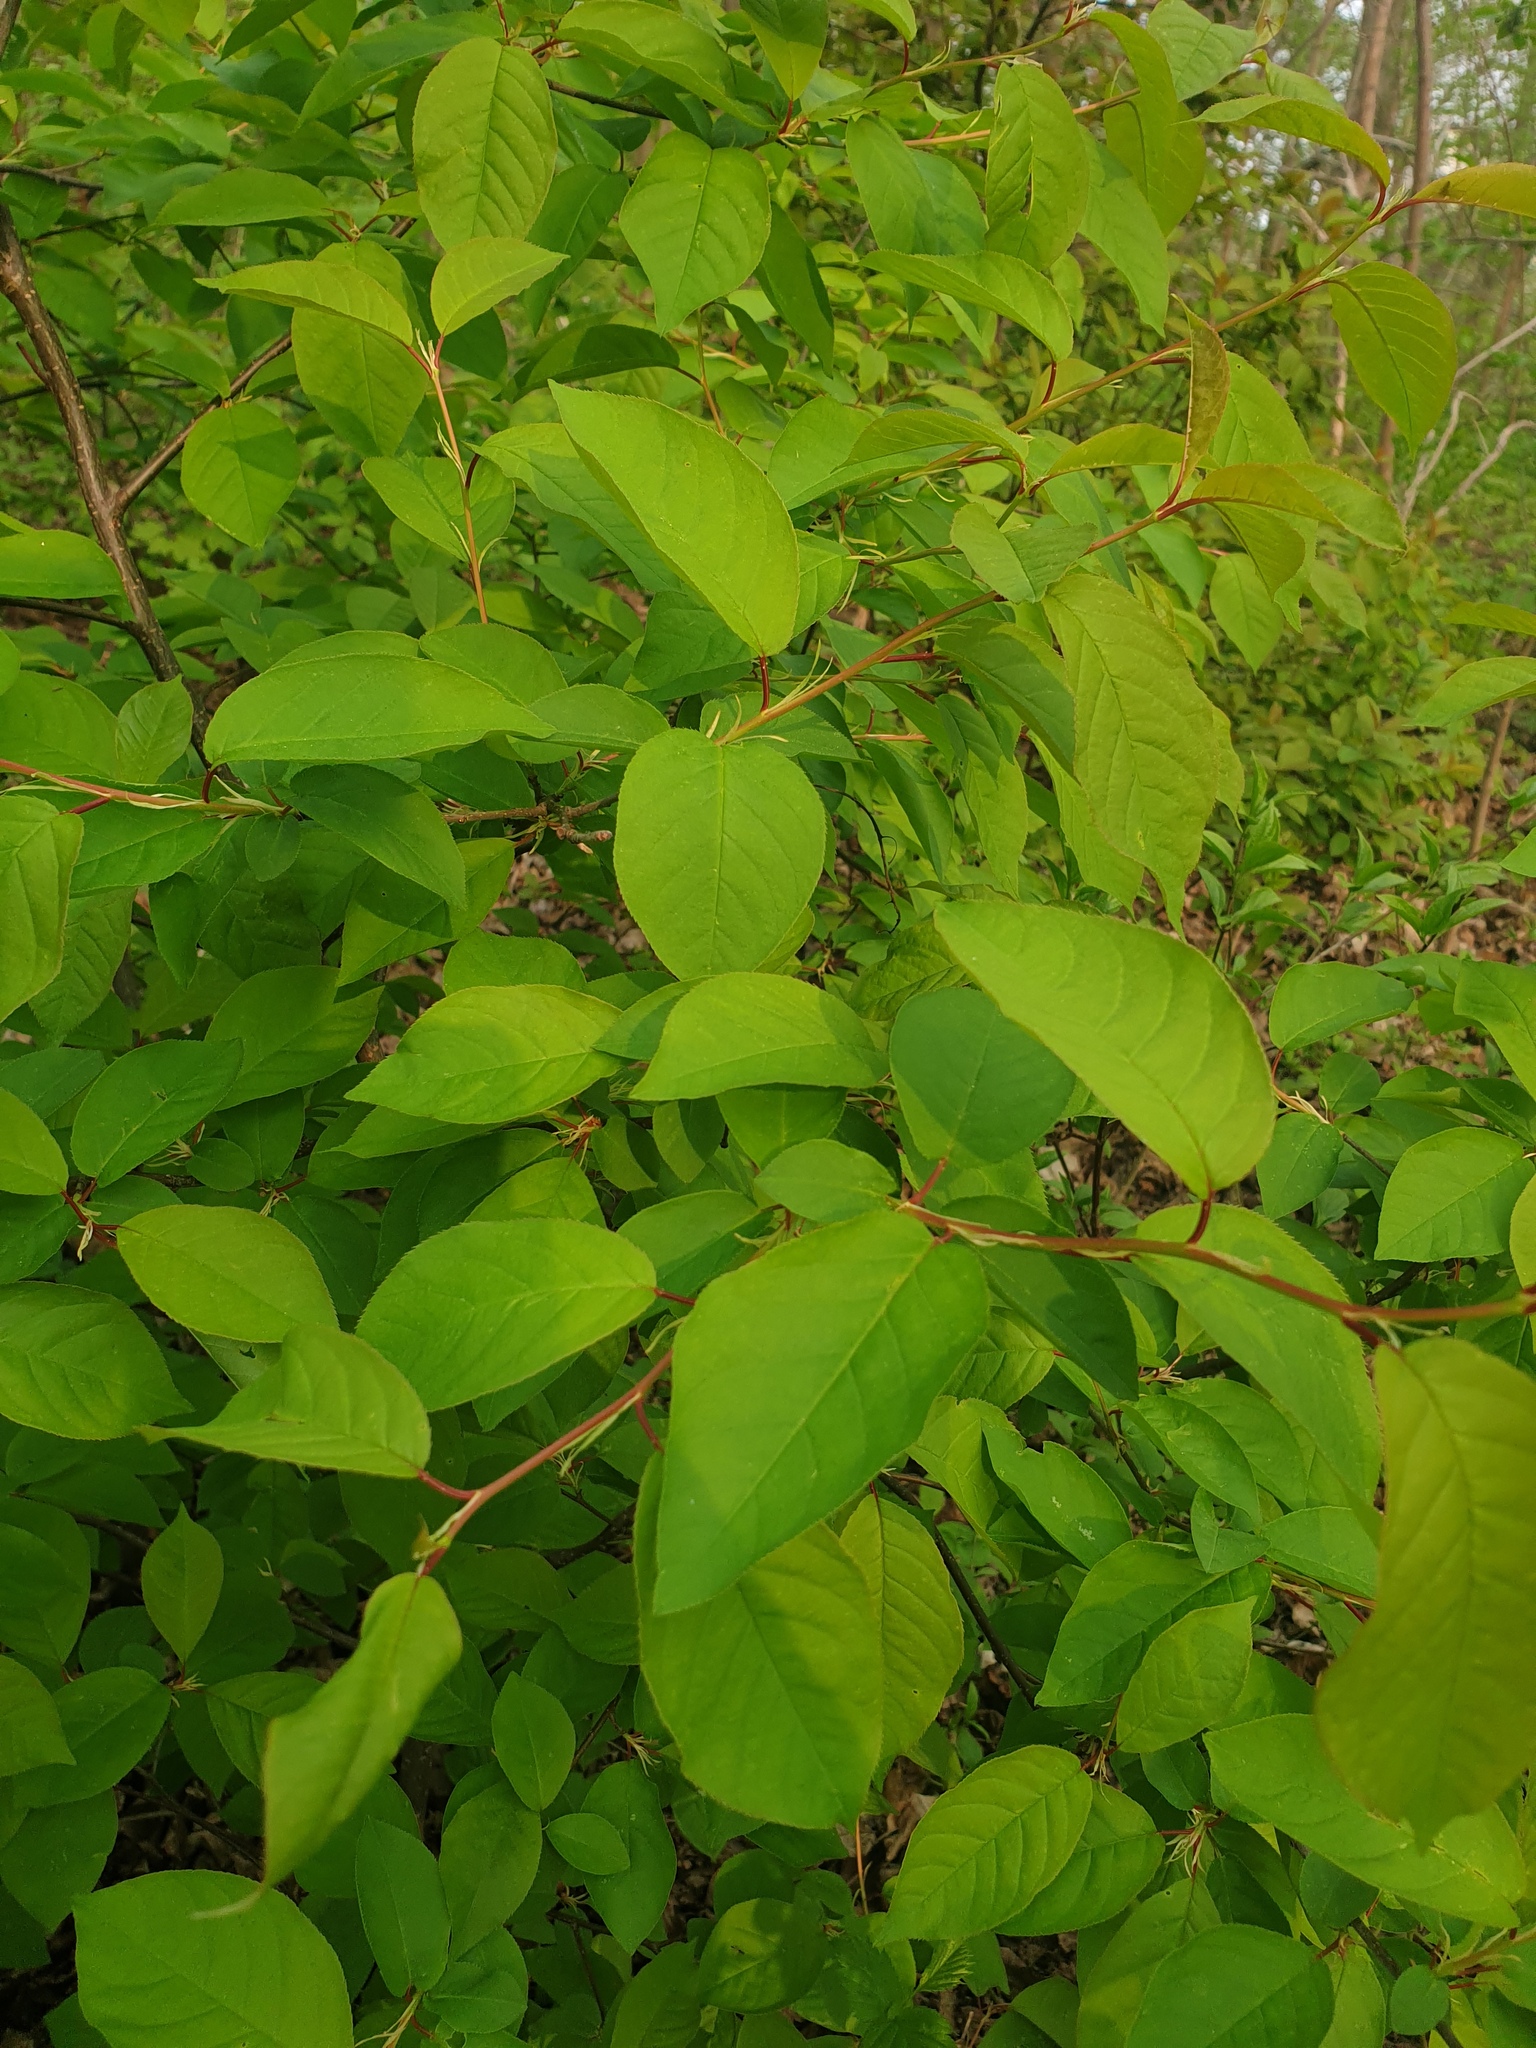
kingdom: Plantae
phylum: Tracheophyta
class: Magnoliopsida
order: Rosales
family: Rosaceae
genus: Prunus
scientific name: Prunus virginiana
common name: Chokecherry
